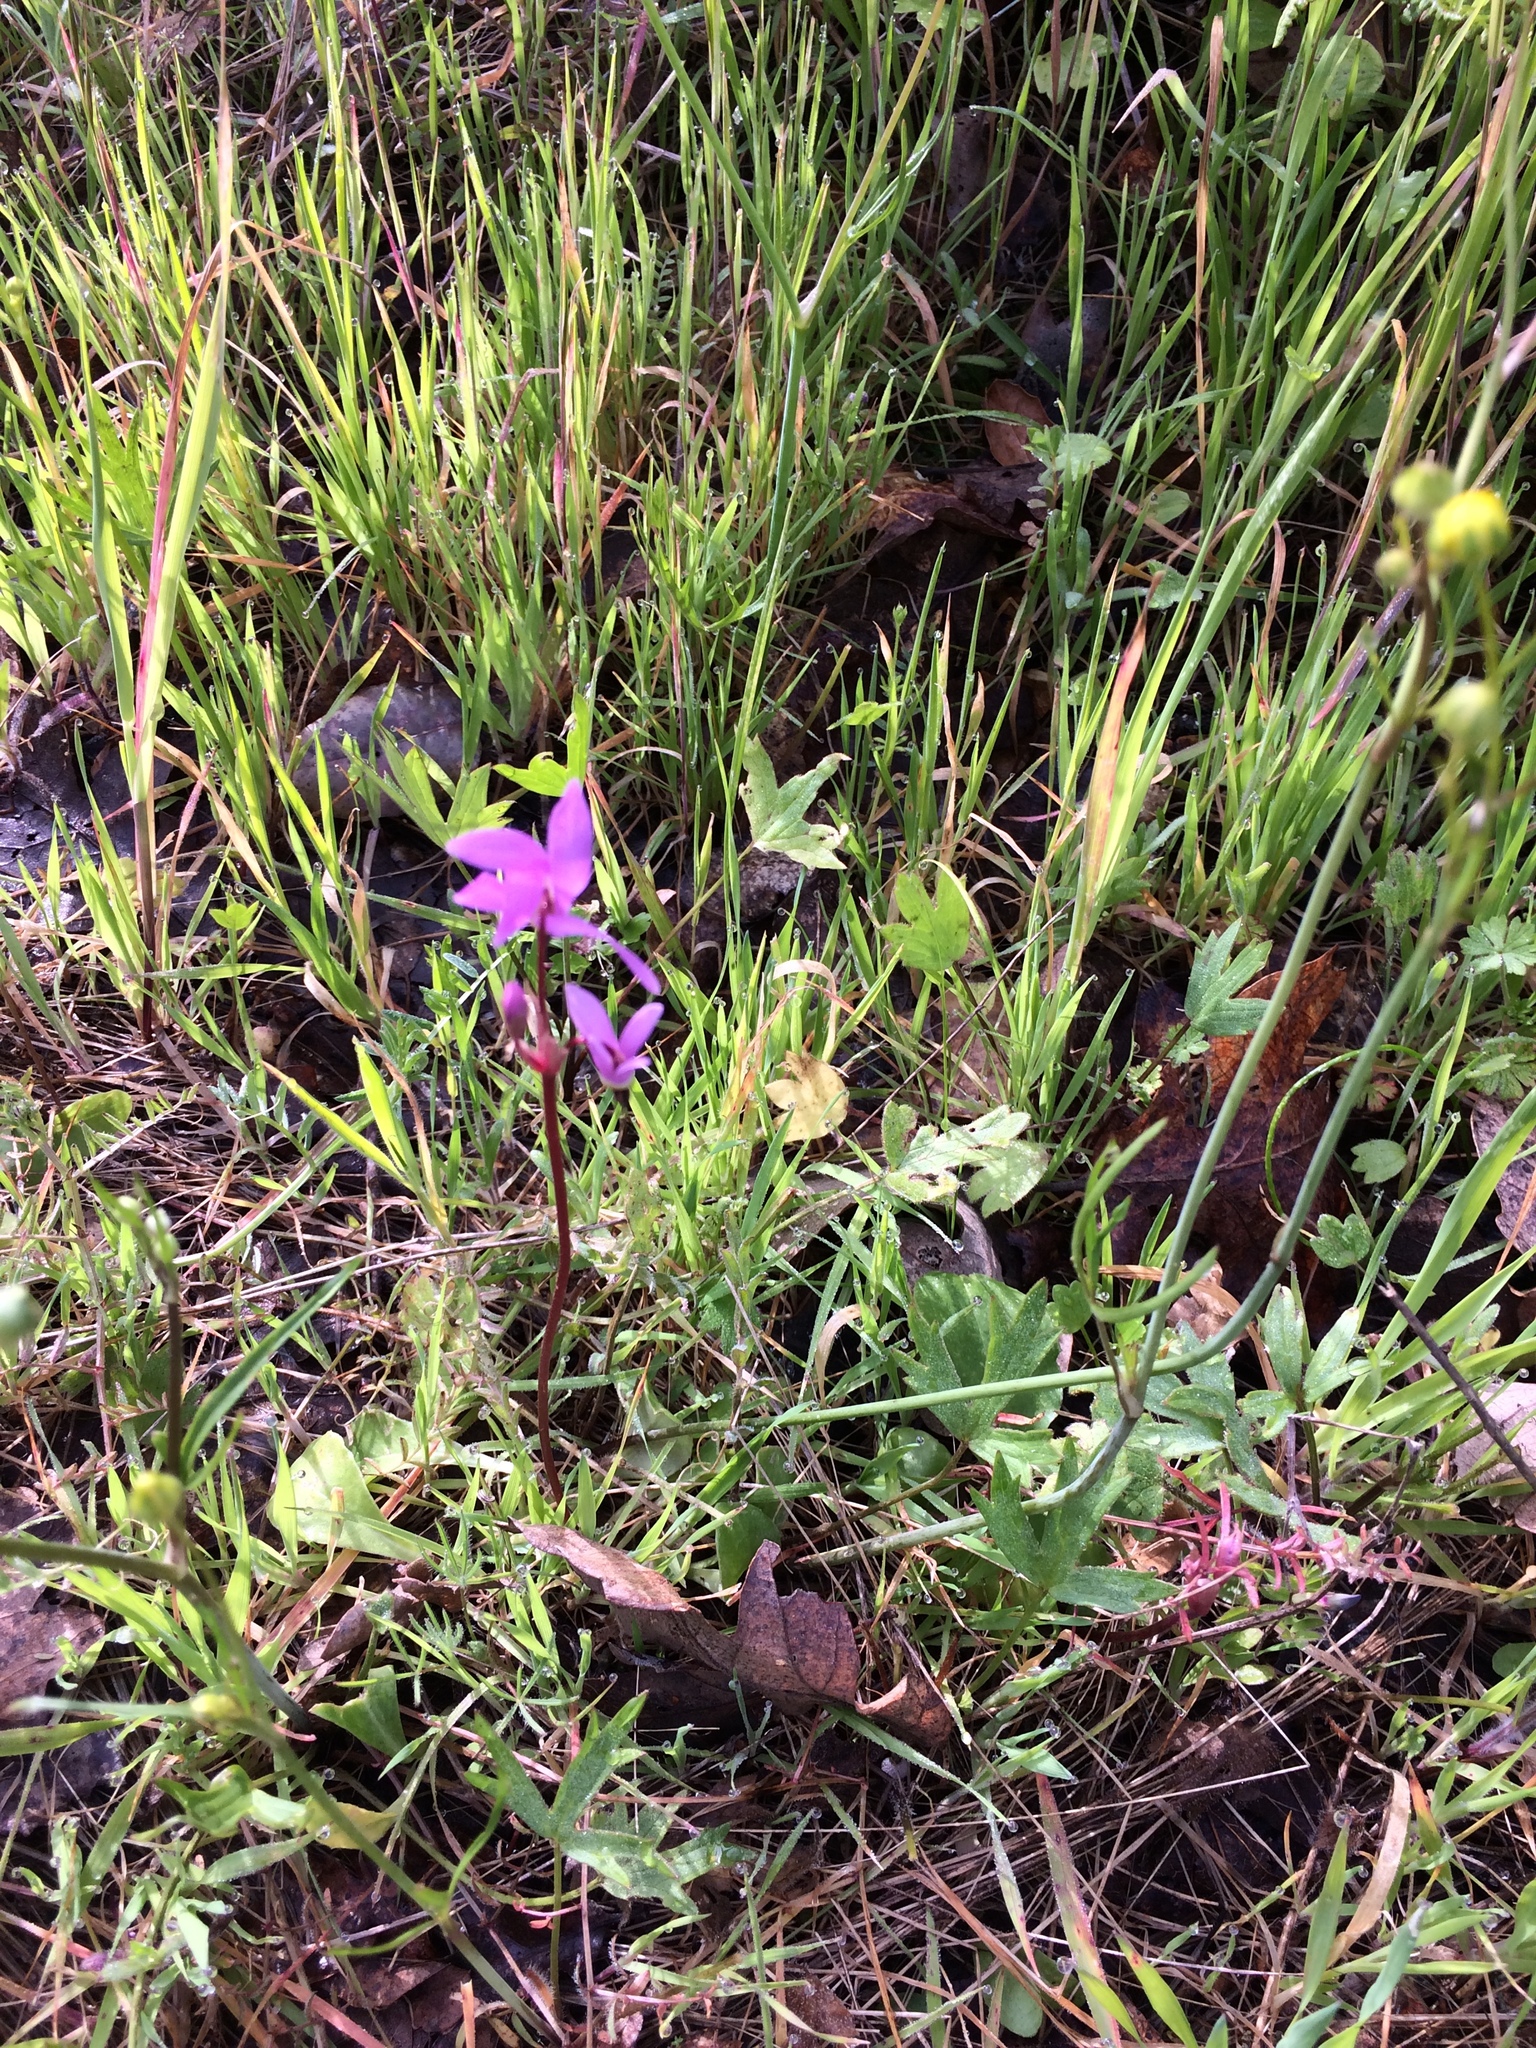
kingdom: Plantae
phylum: Tracheophyta
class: Magnoliopsida
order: Ericales
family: Primulaceae
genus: Dodecatheon
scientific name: Dodecatheon hendersonii
